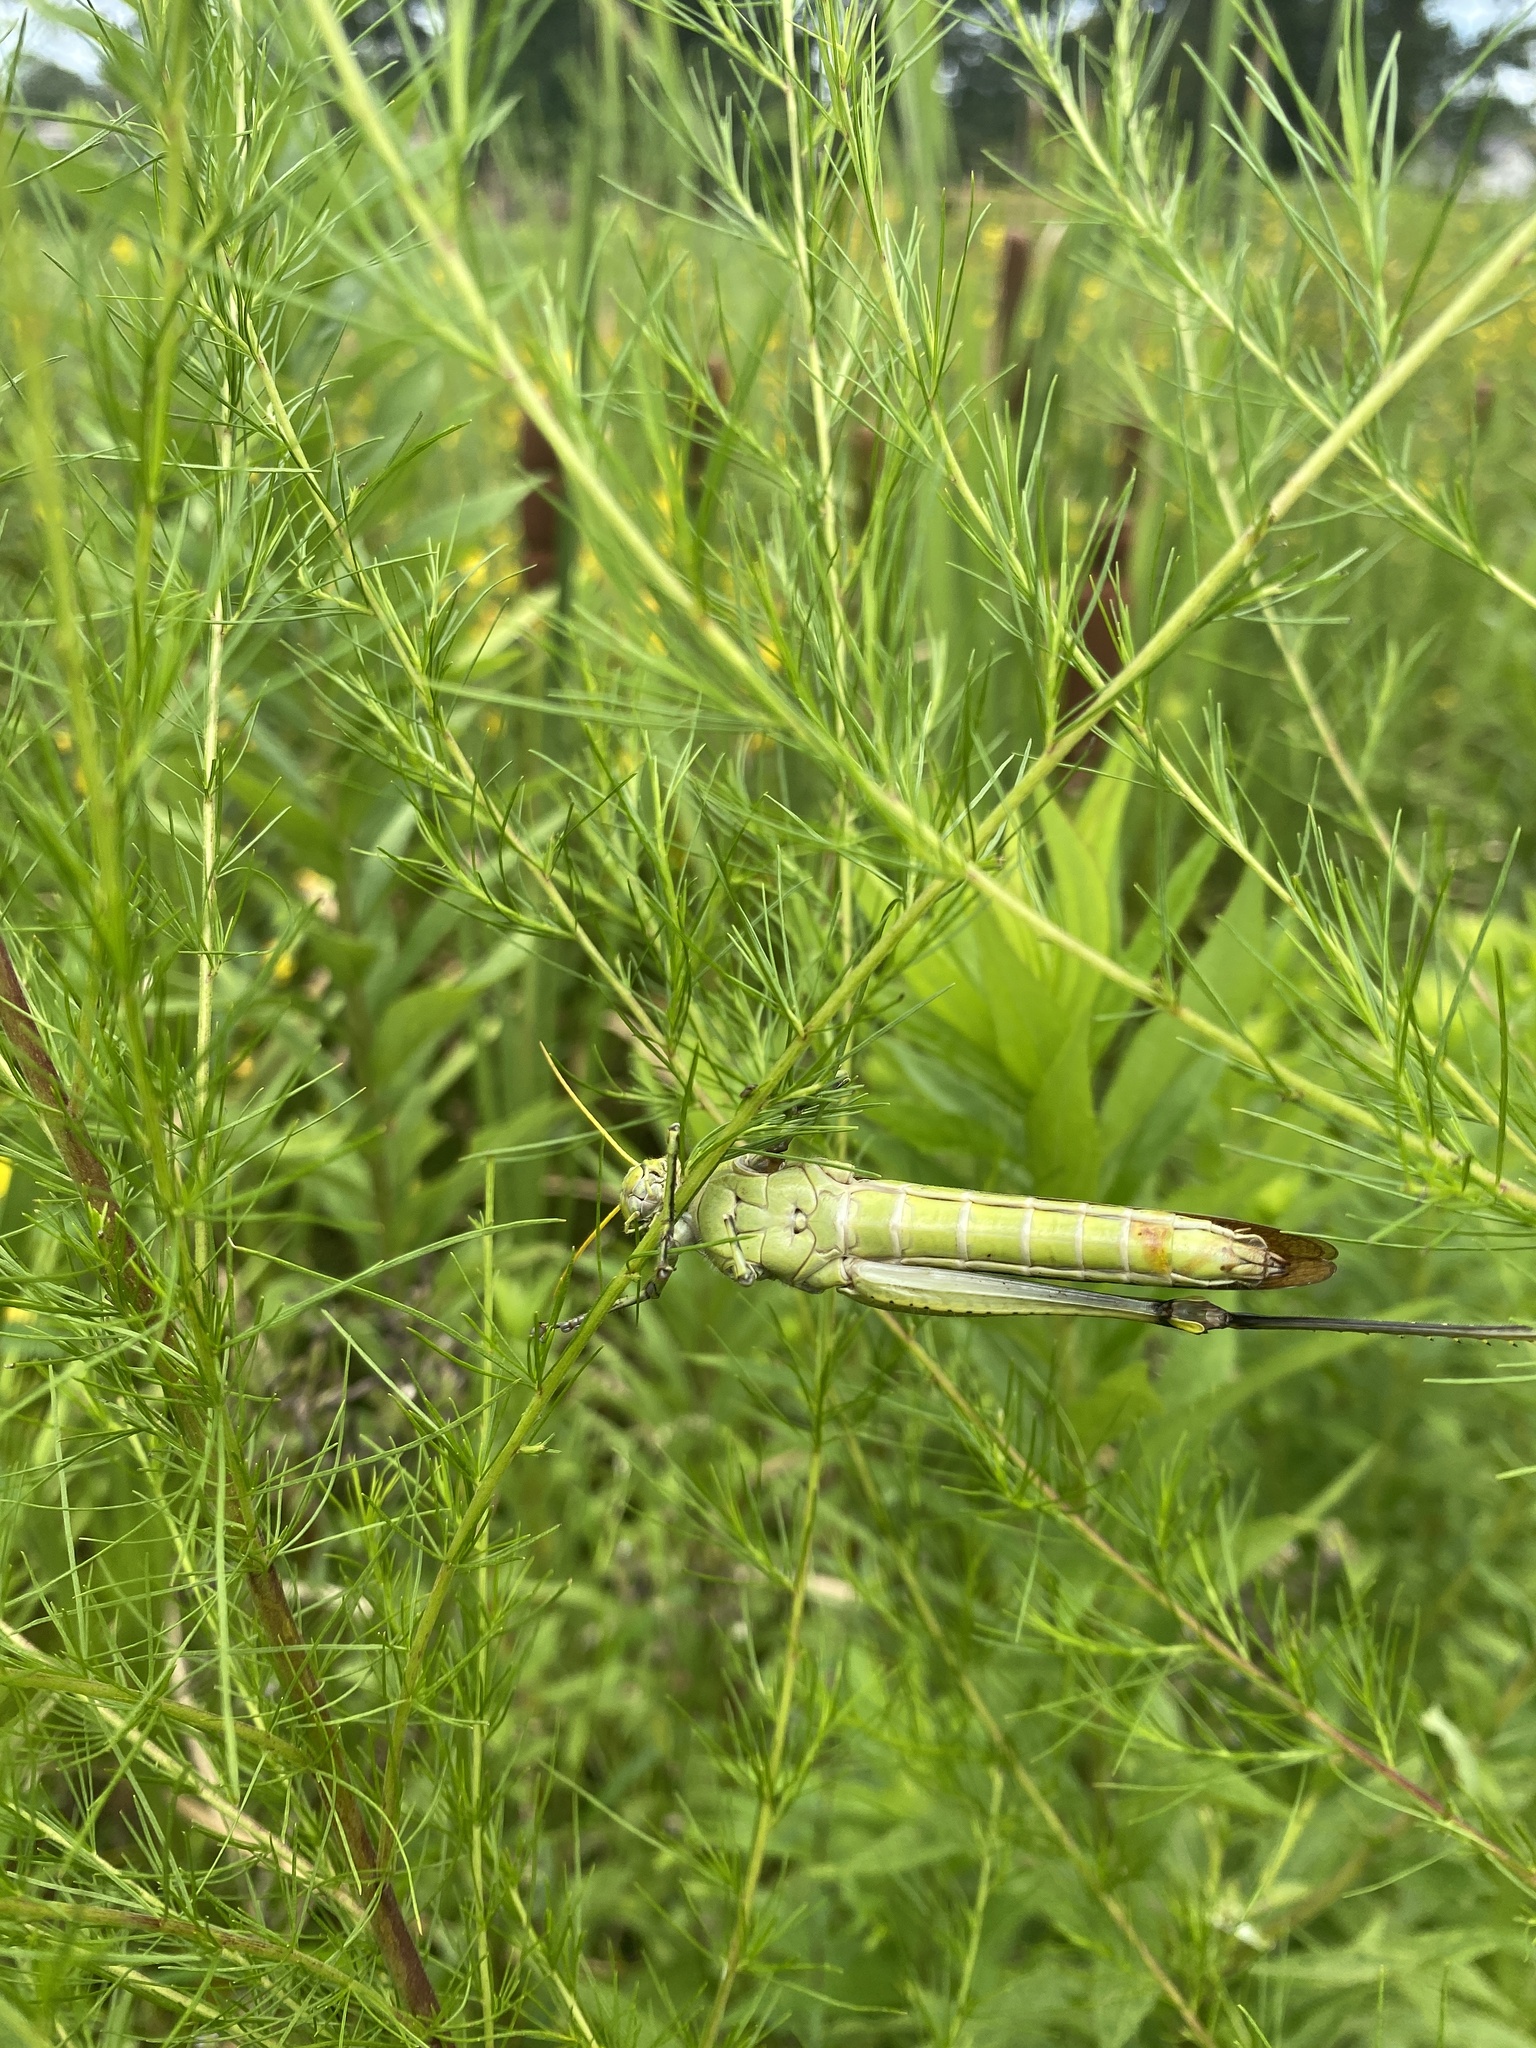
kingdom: Animalia
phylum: Arthropoda
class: Insecta
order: Orthoptera
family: Acrididae
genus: Schistocerca
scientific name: Schistocerca obscura
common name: Obscure bird grasshopper
